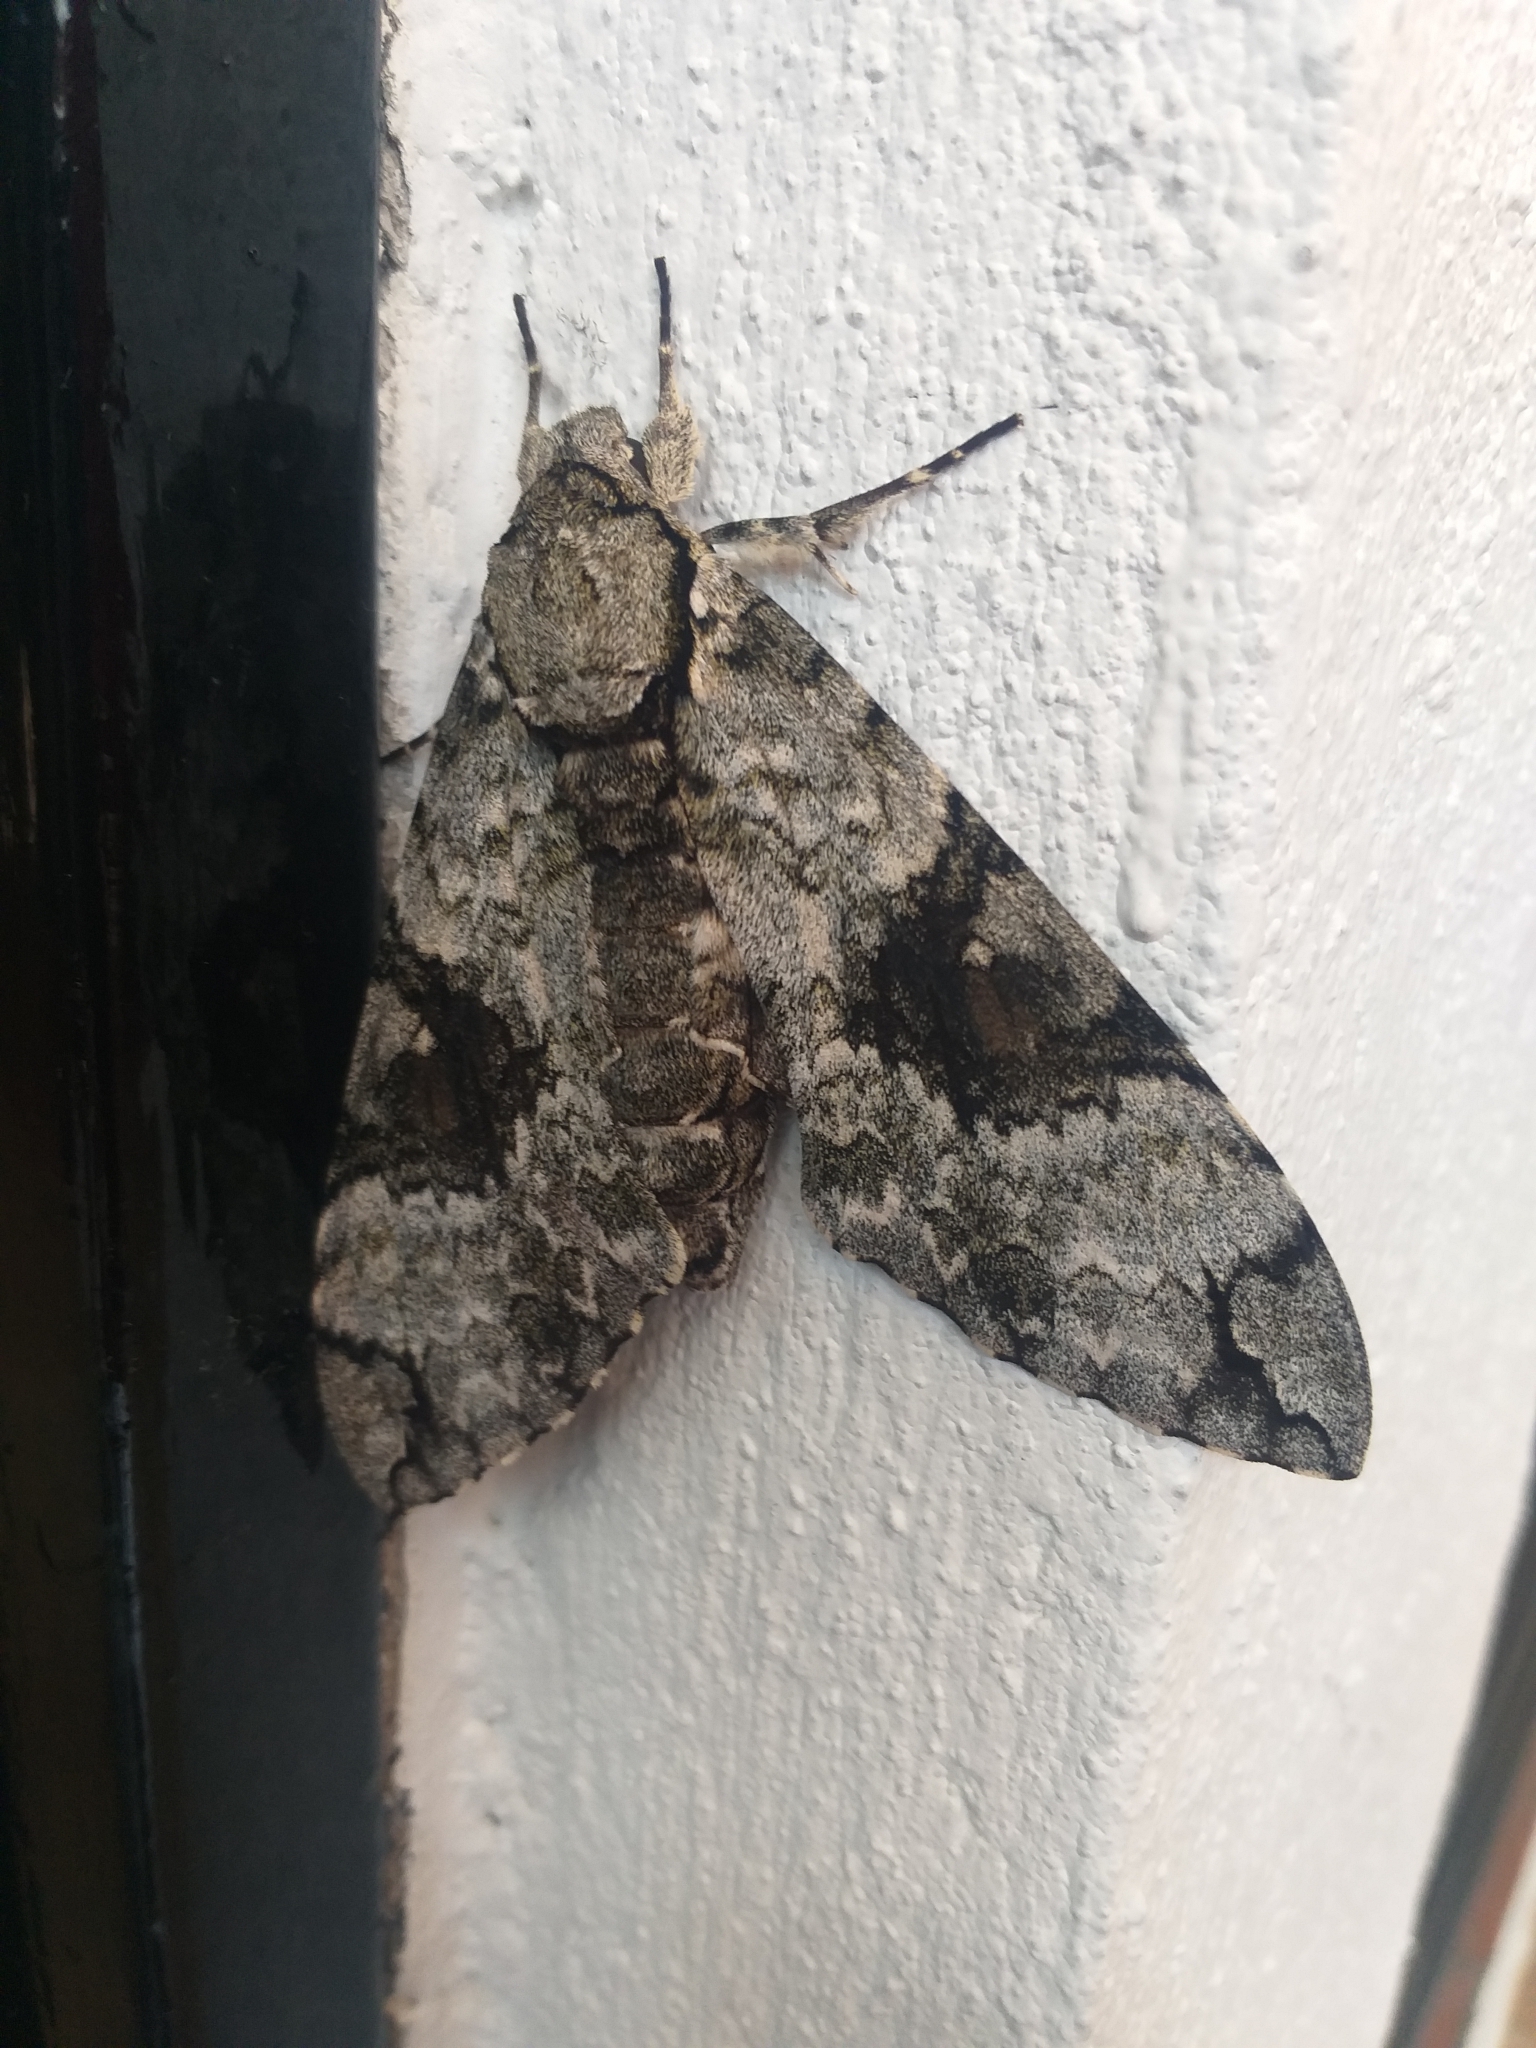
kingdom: Animalia
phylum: Arthropoda
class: Insecta
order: Lepidoptera
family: Sphingidae
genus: Manduca
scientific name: Manduca florestan
